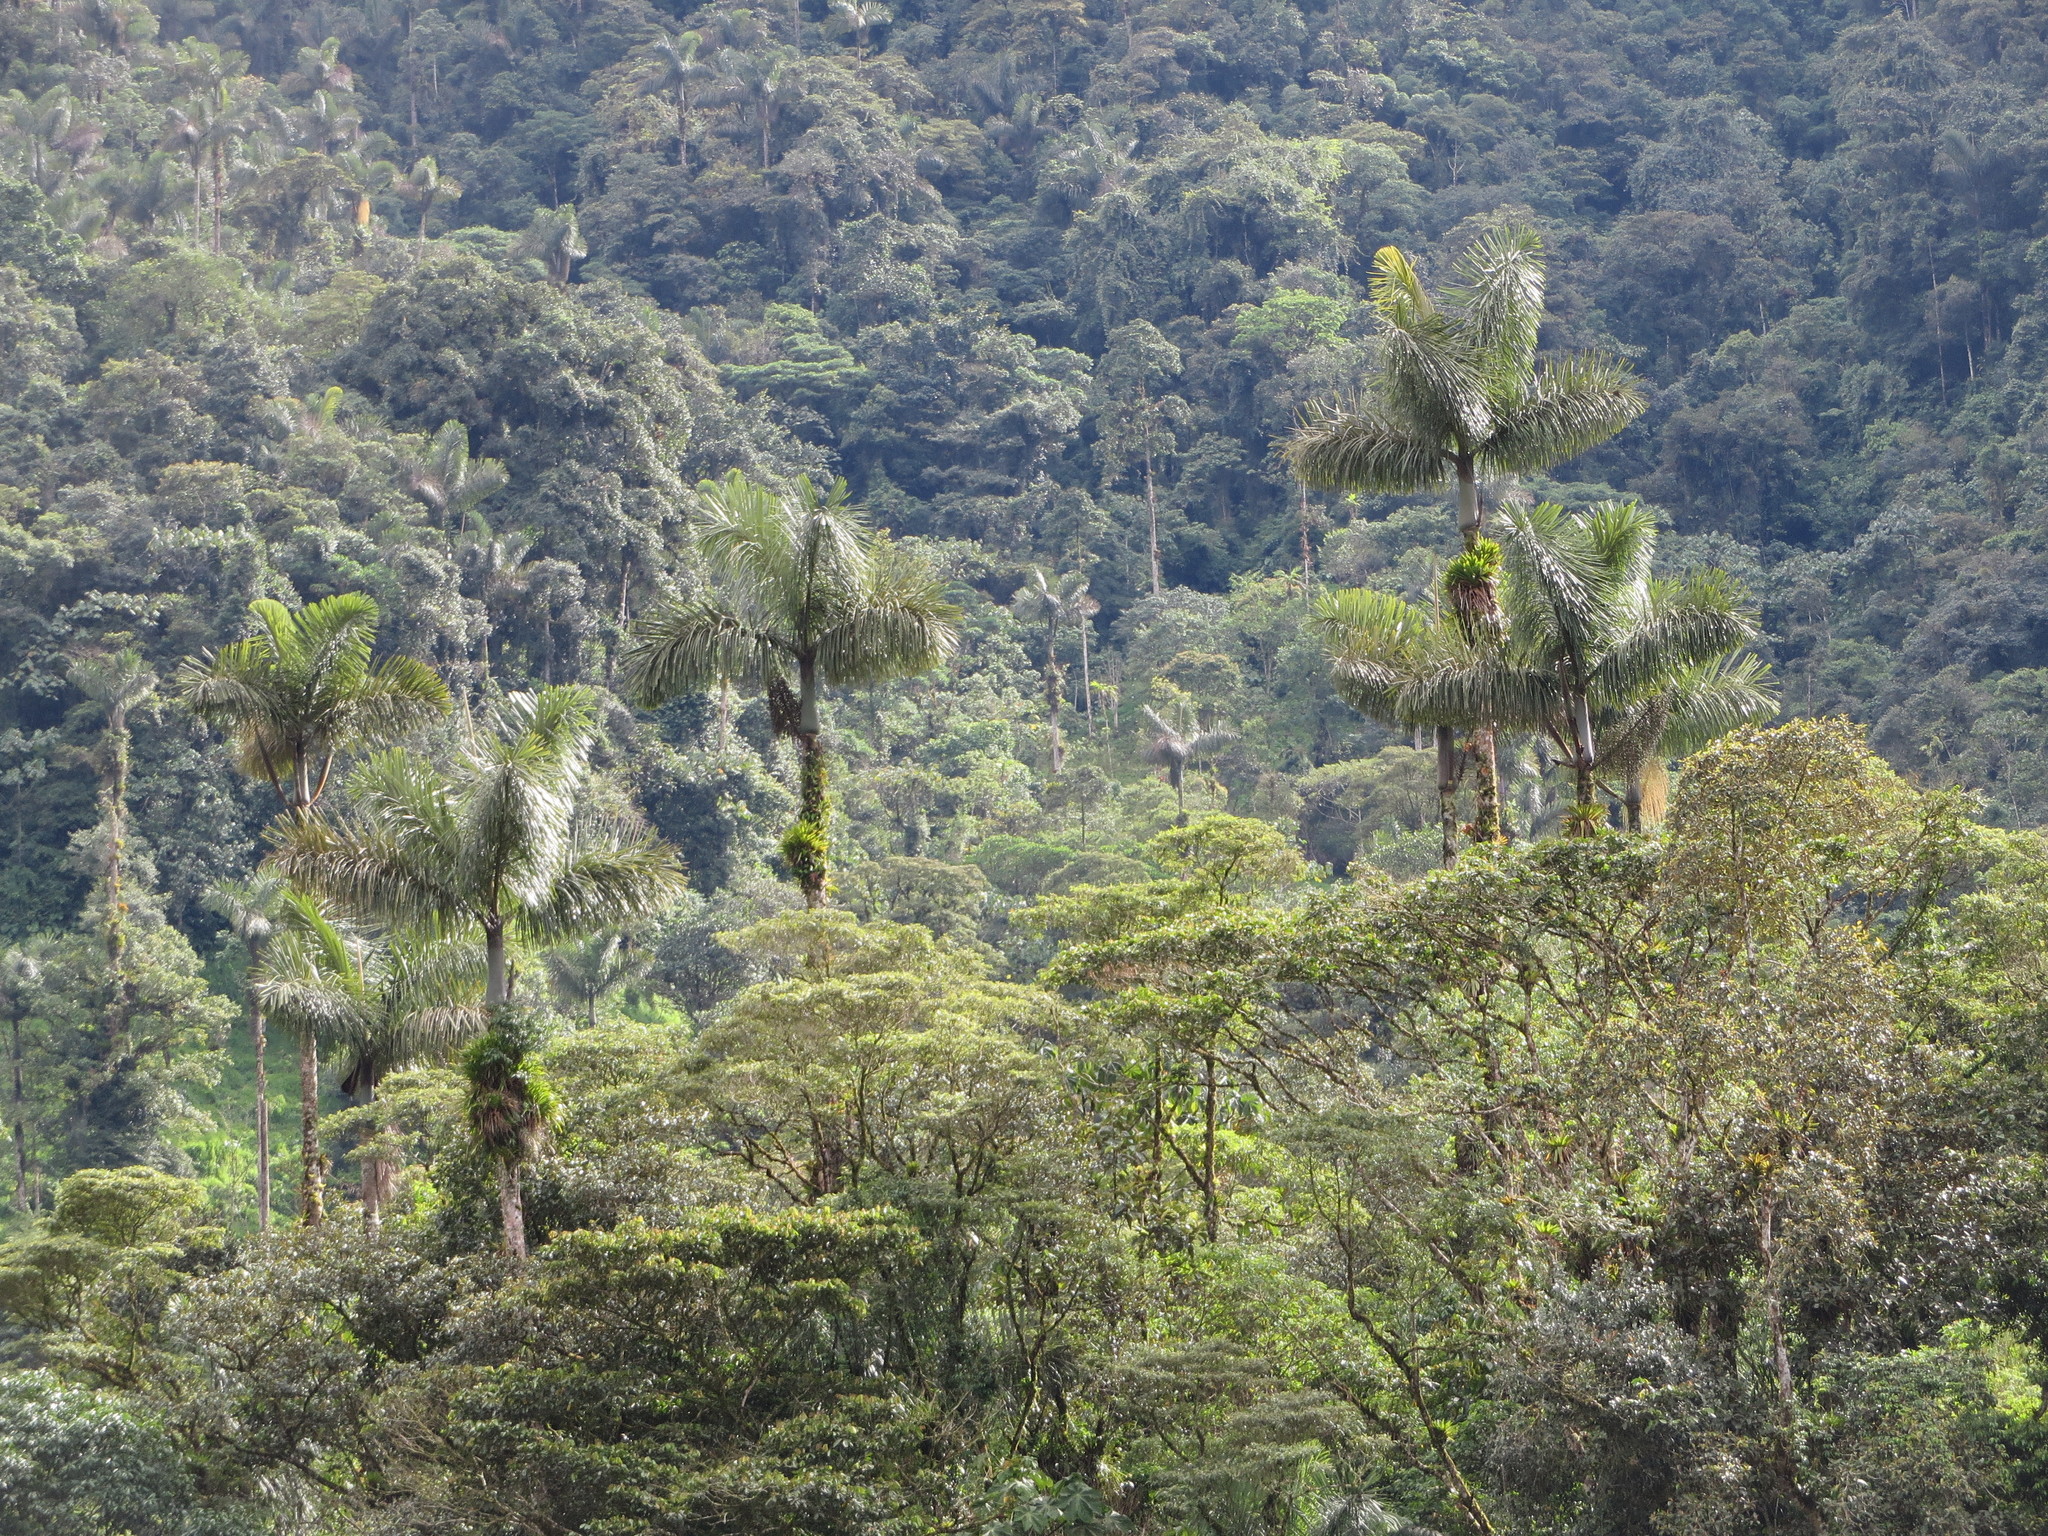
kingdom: Plantae
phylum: Tracheophyta
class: Liliopsida
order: Arecales
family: Arecaceae
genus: Dictyocaryum
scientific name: Dictyocaryum lamarckianum
